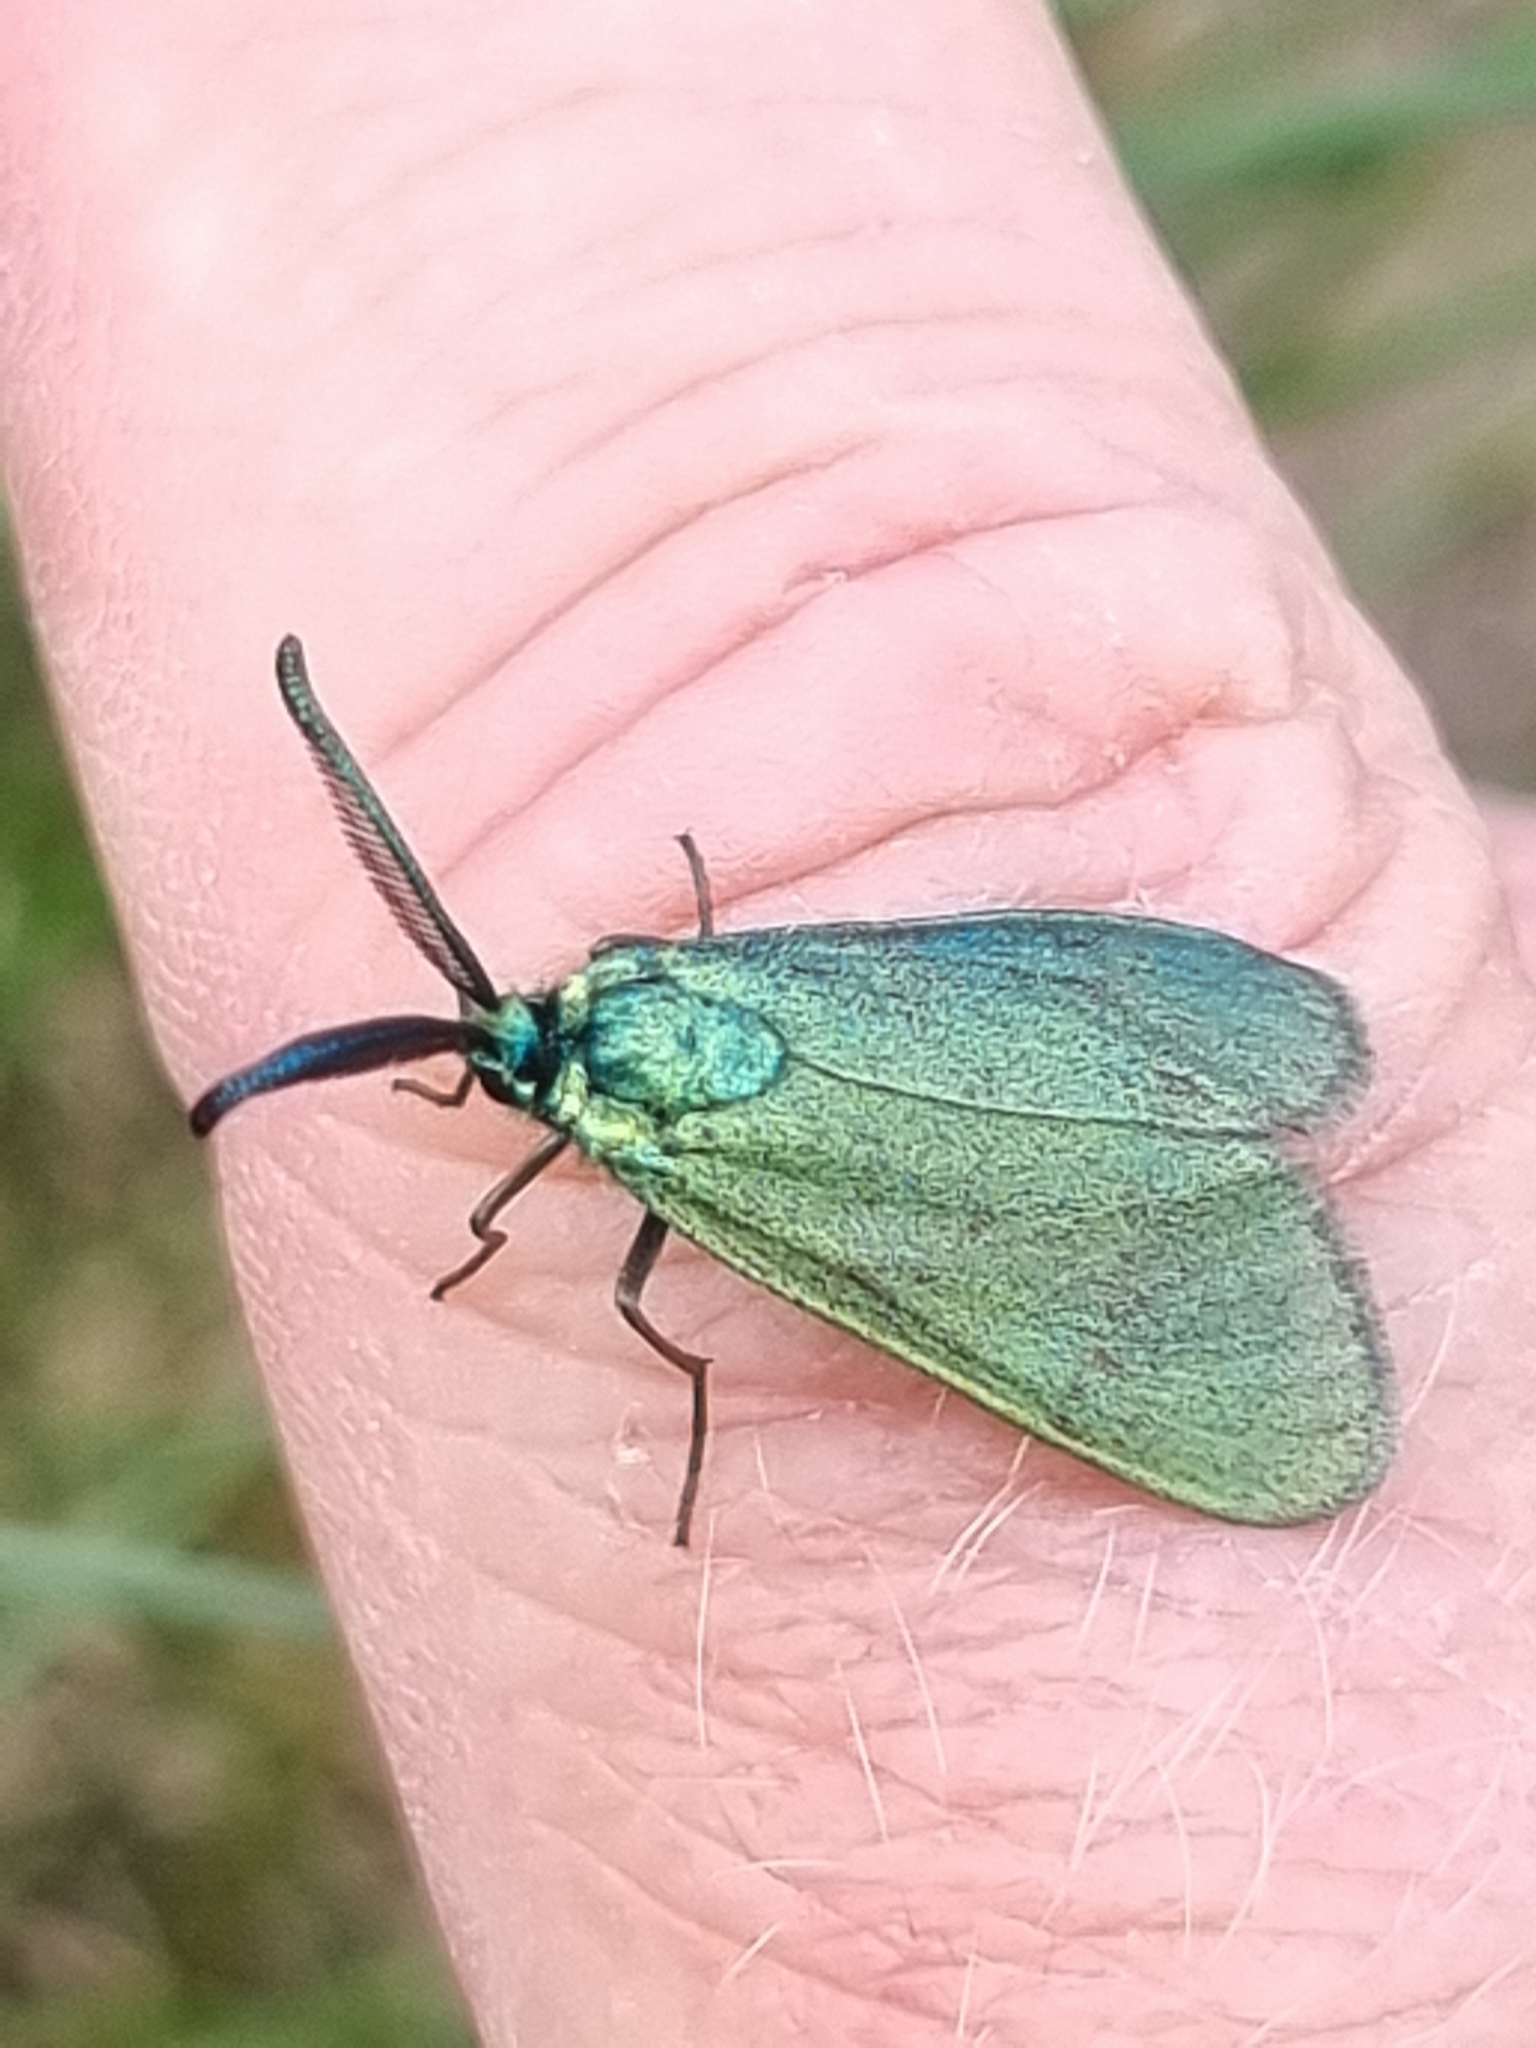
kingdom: Animalia
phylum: Arthropoda
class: Insecta
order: Lepidoptera
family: Zygaenidae
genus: Adscita
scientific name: Adscita statices
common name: Forester
